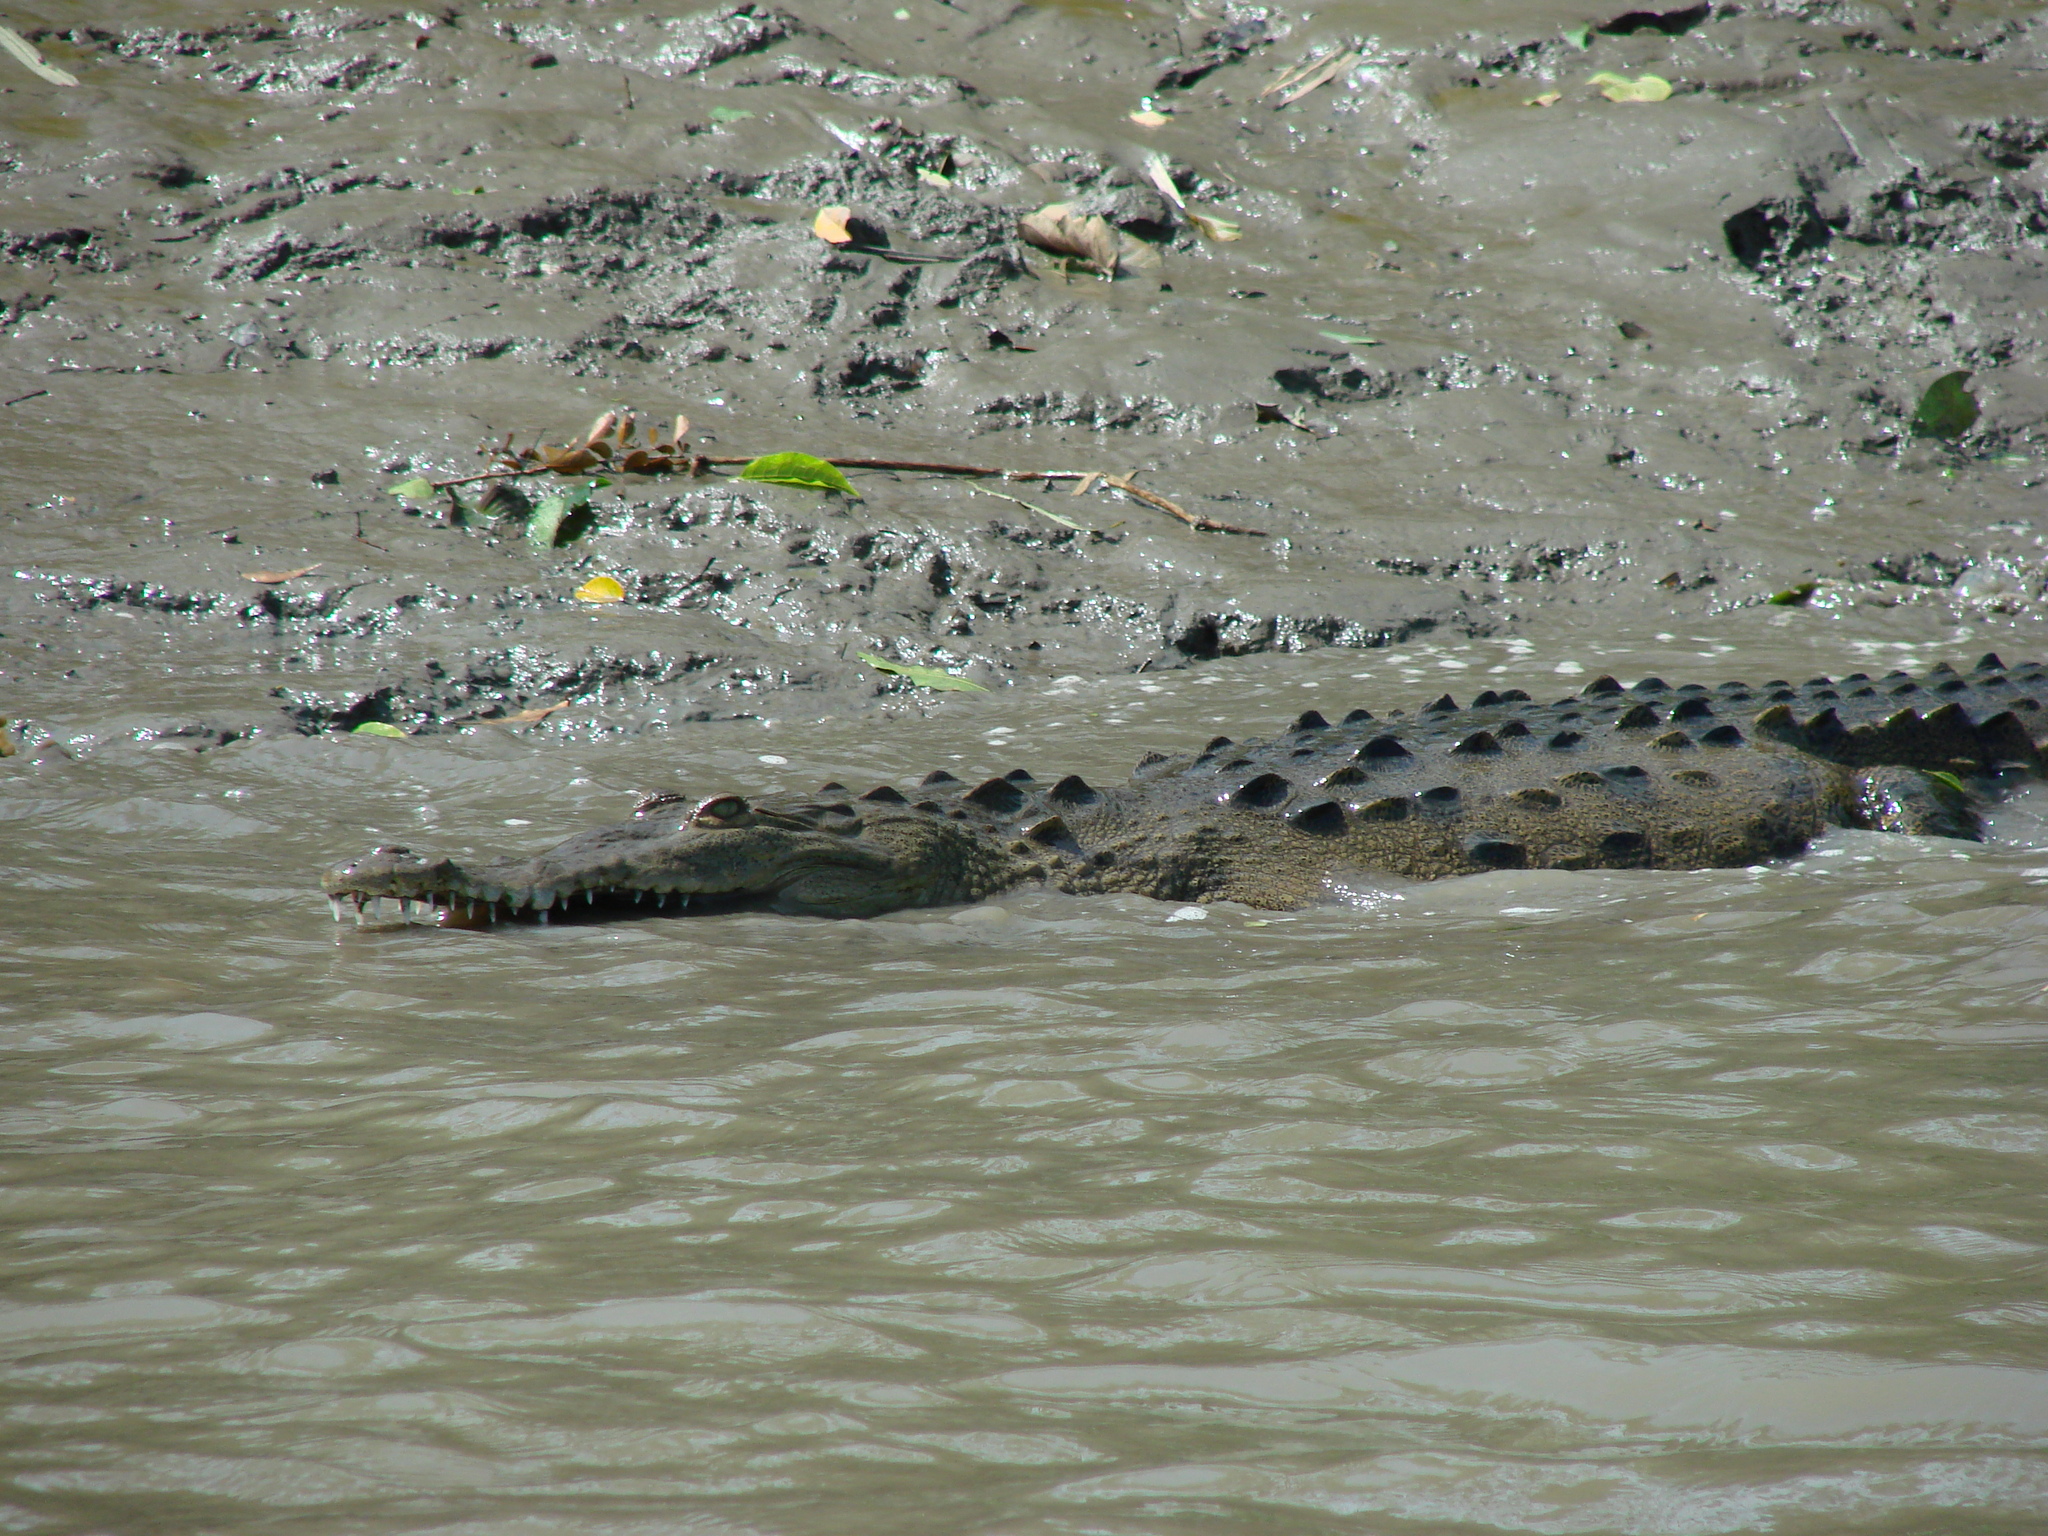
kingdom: Animalia
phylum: Chordata
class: Crocodylia
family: Crocodylidae
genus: Crocodylus
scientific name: Crocodylus acutus
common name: American crocodile
